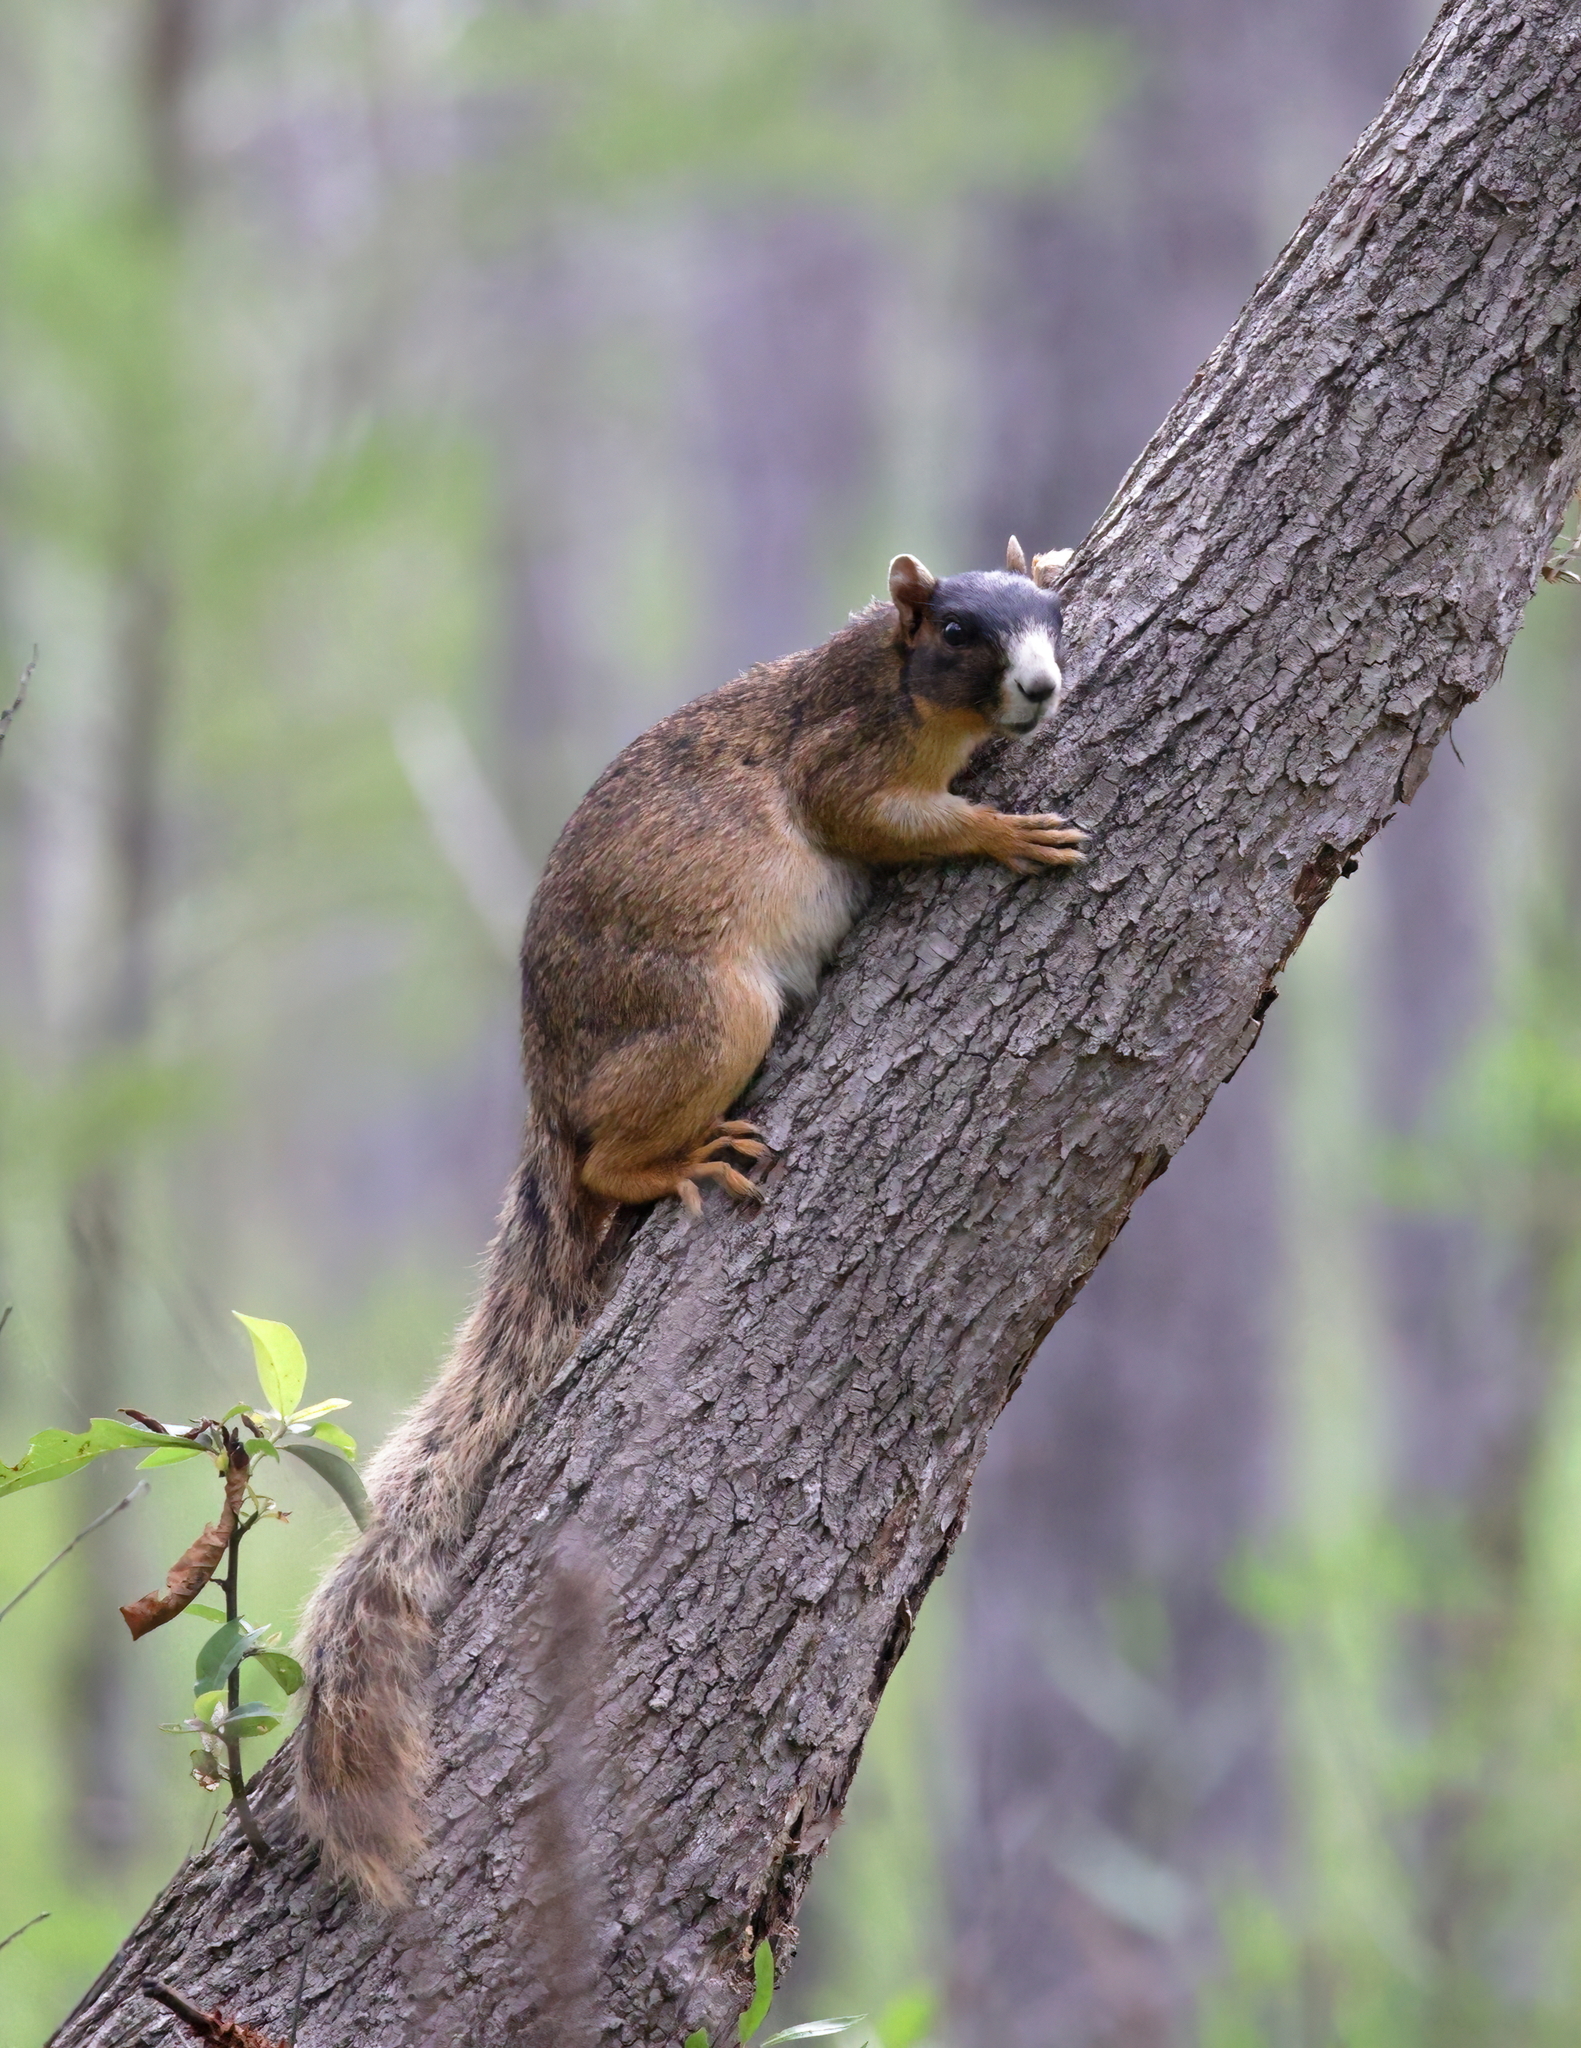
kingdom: Animalia
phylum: Chordata
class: Mammalia
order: Rodentia
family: Sciuridae
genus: Sciurus
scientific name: Sciurus niger
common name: Fox squirrel
